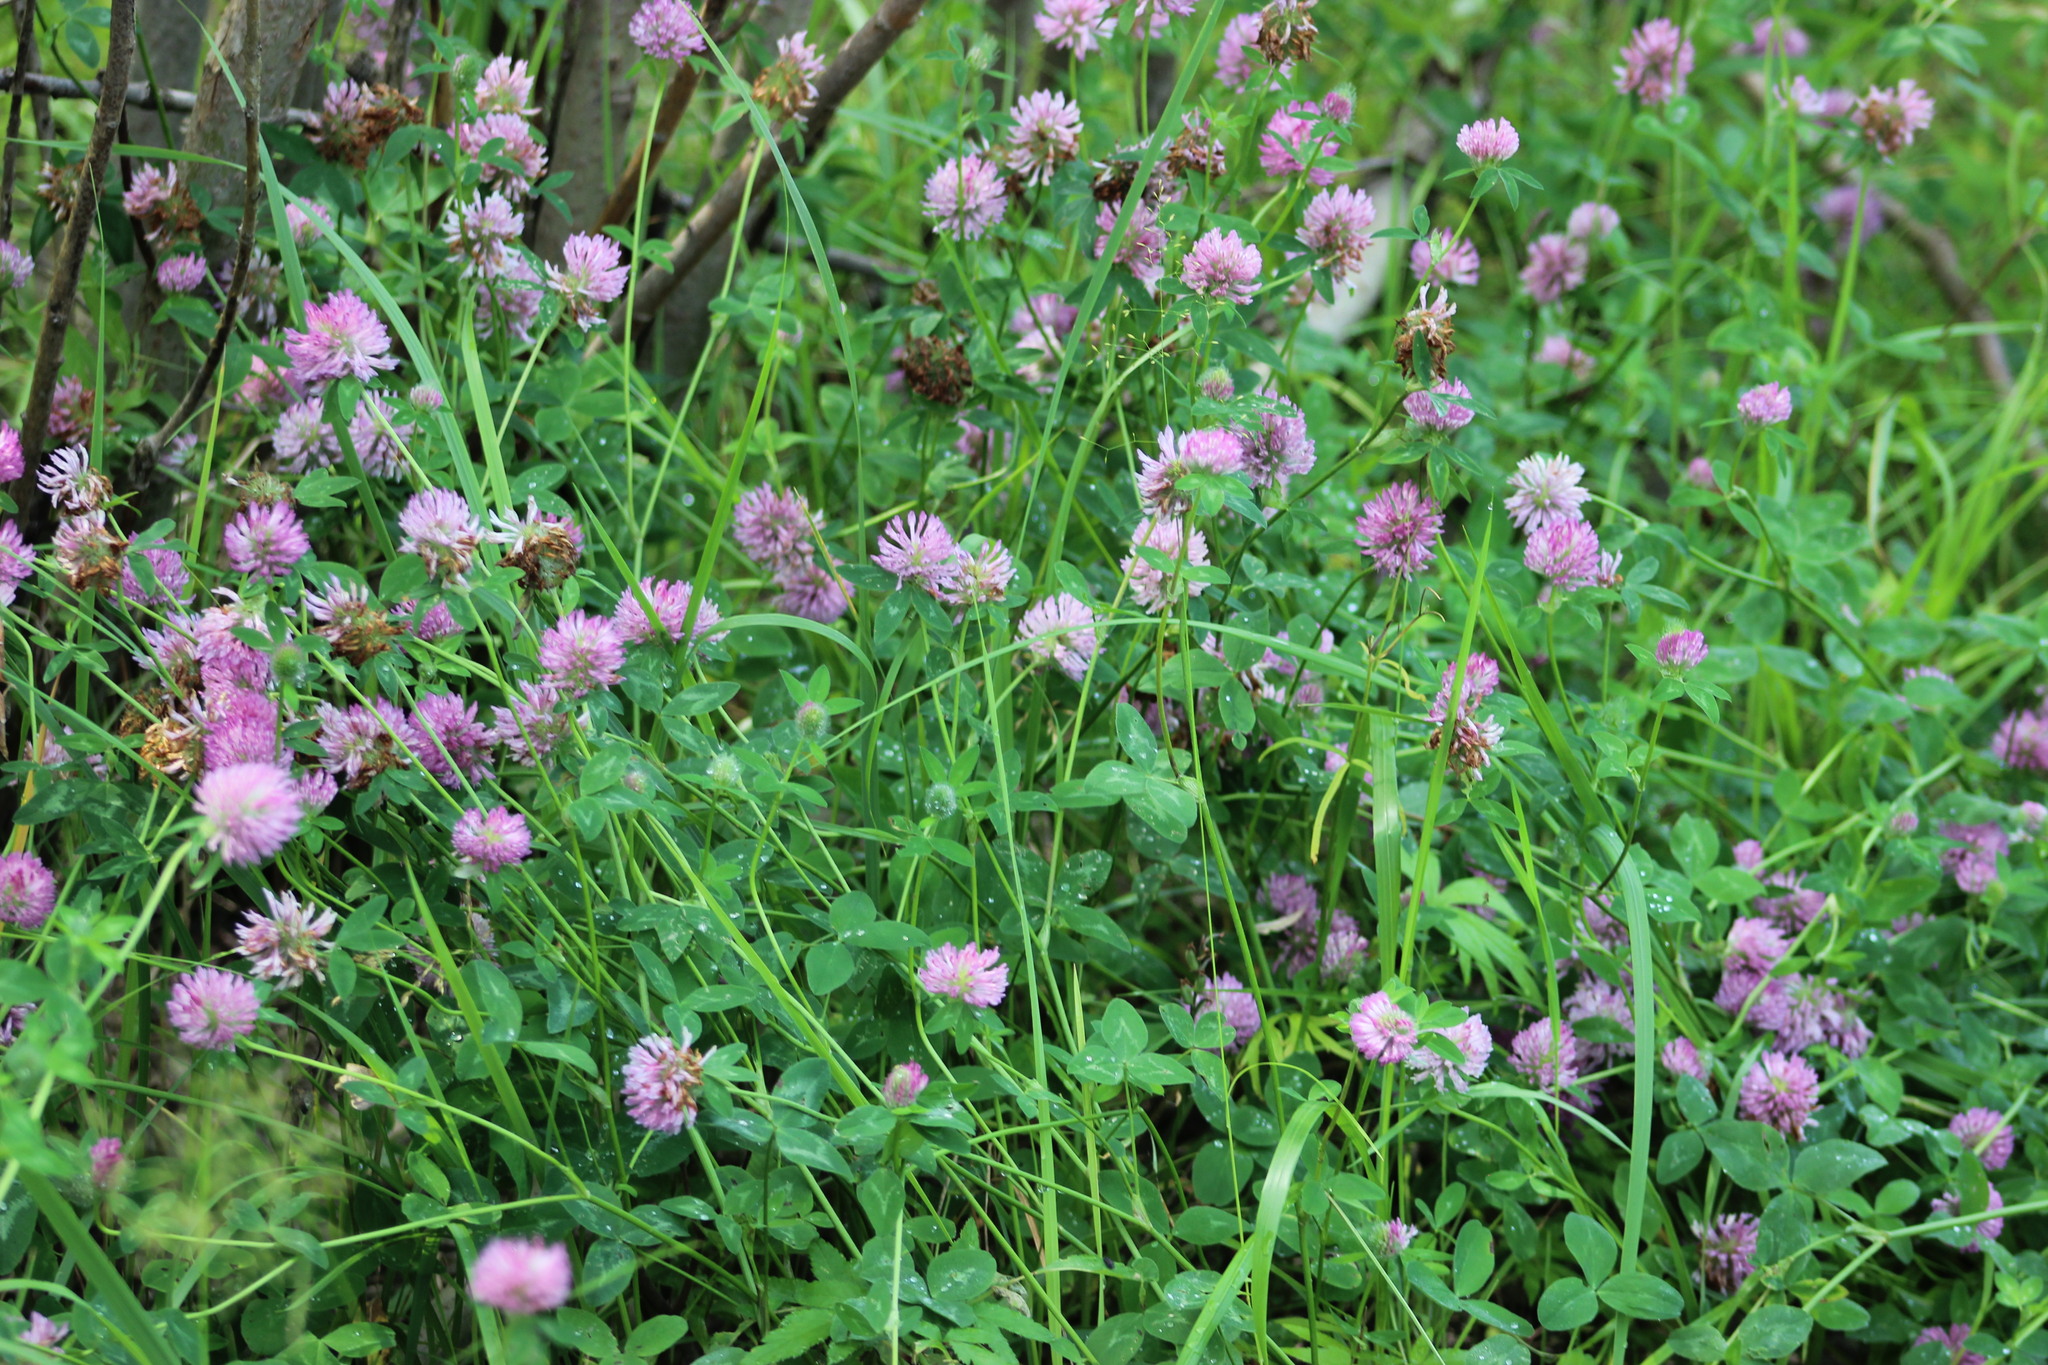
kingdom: Plantae
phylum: Tracheophyta
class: Magnoliopsida
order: Fabales
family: Fabaceae
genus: Trifolium
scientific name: Trifolium pratense
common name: Red clover
